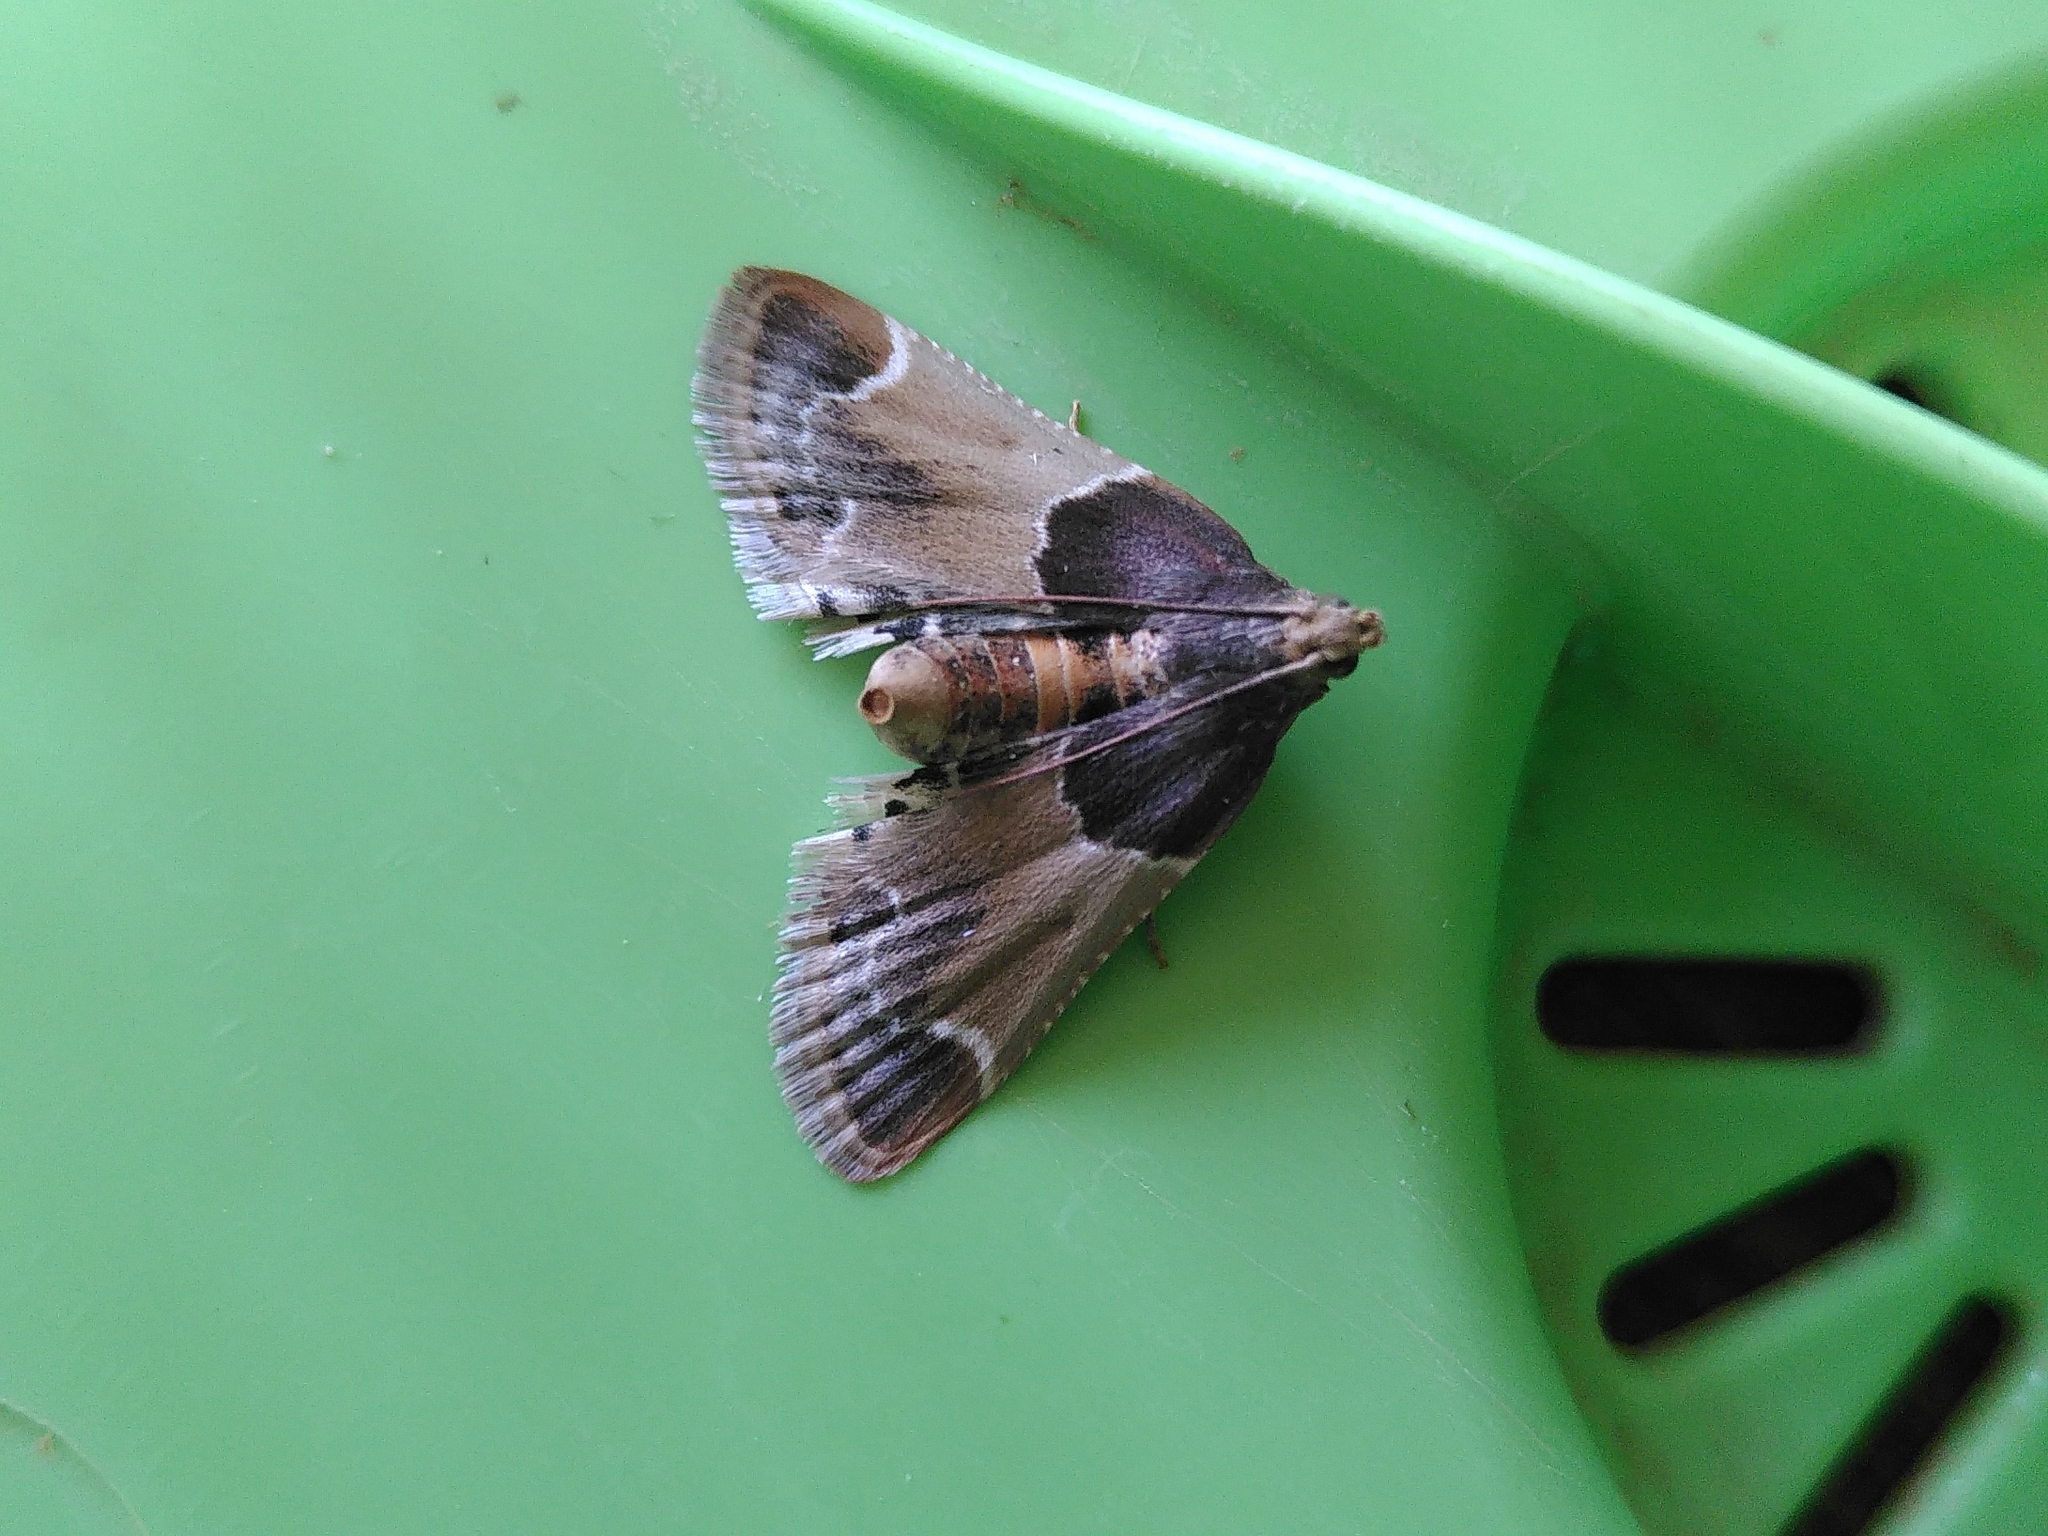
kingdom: Animalia
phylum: Arthropoda
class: Insecta
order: Lepidoptera
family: Pyralidae
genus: Pyralis
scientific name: Pyralis farinalis
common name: Meal moth
